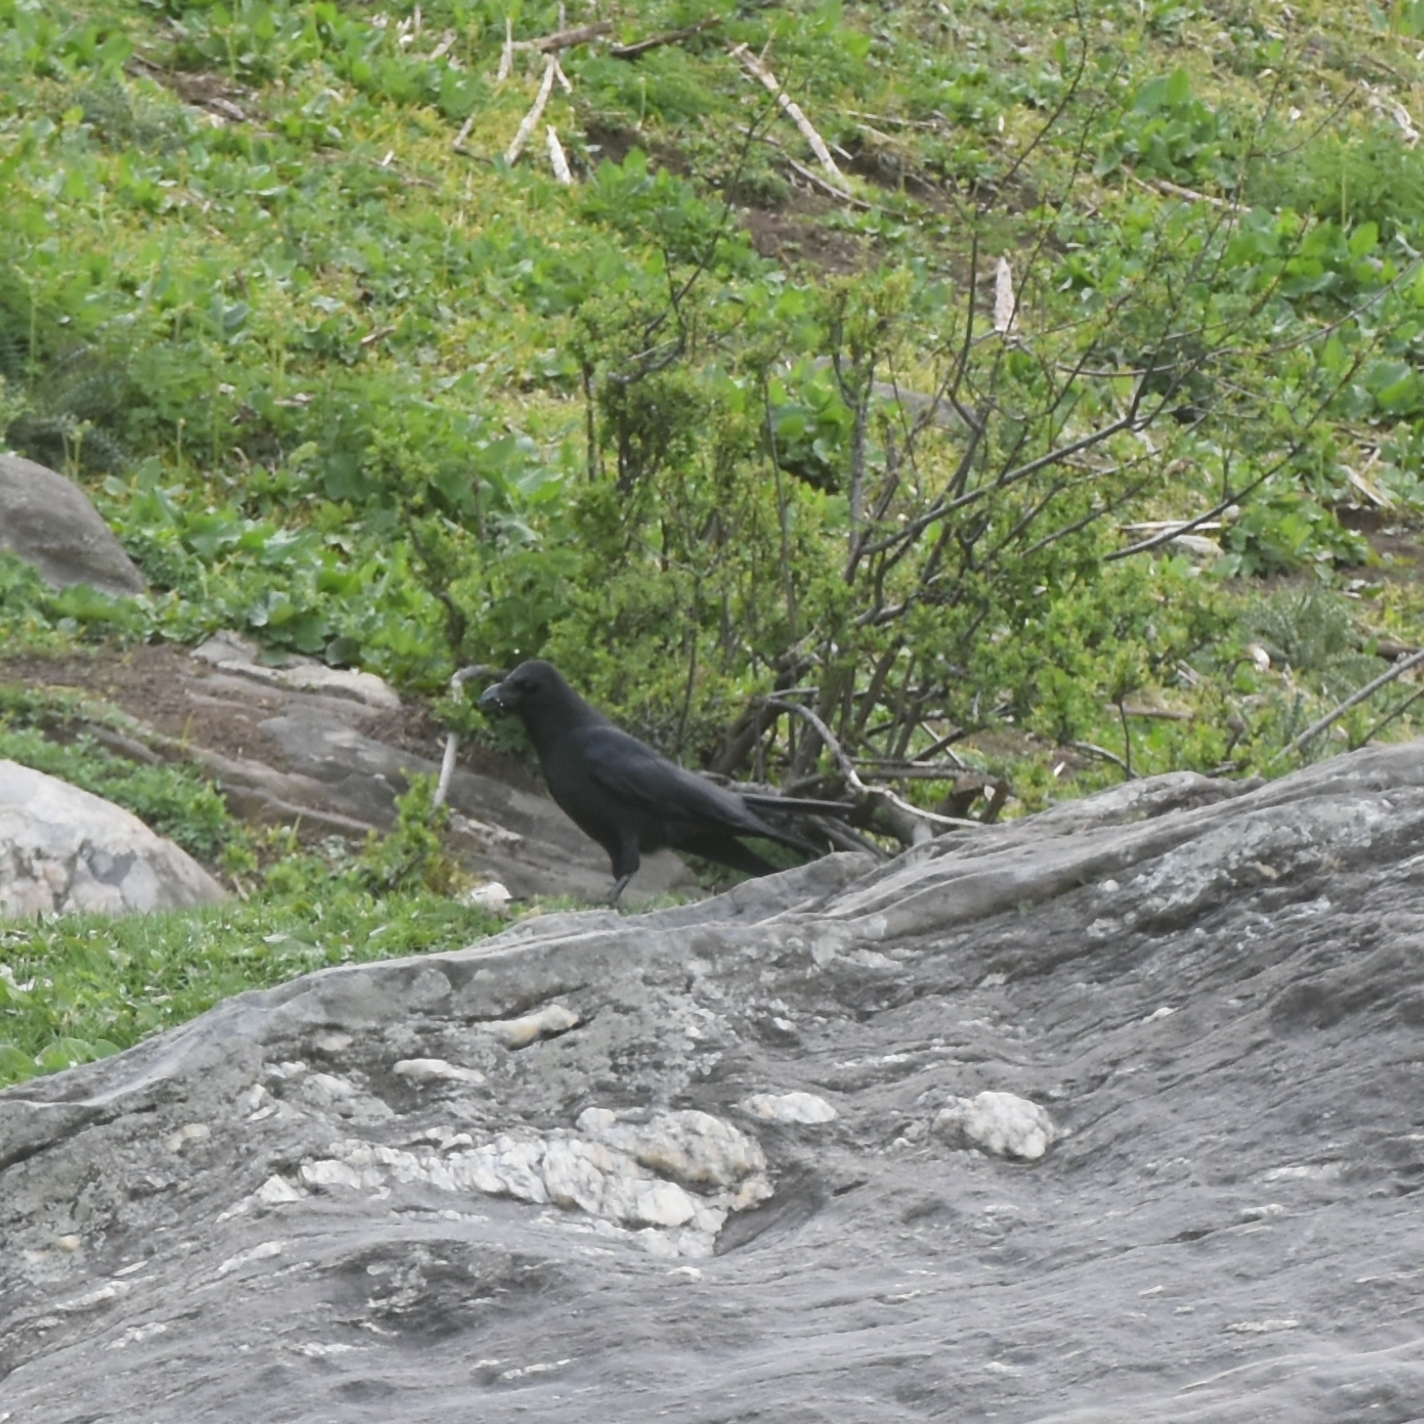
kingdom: Animalia
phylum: Chordata
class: Aves
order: Passeriformes
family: Corvidae
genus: Corvus
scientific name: Corvus macrorhynchos
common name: Large-billed crow
